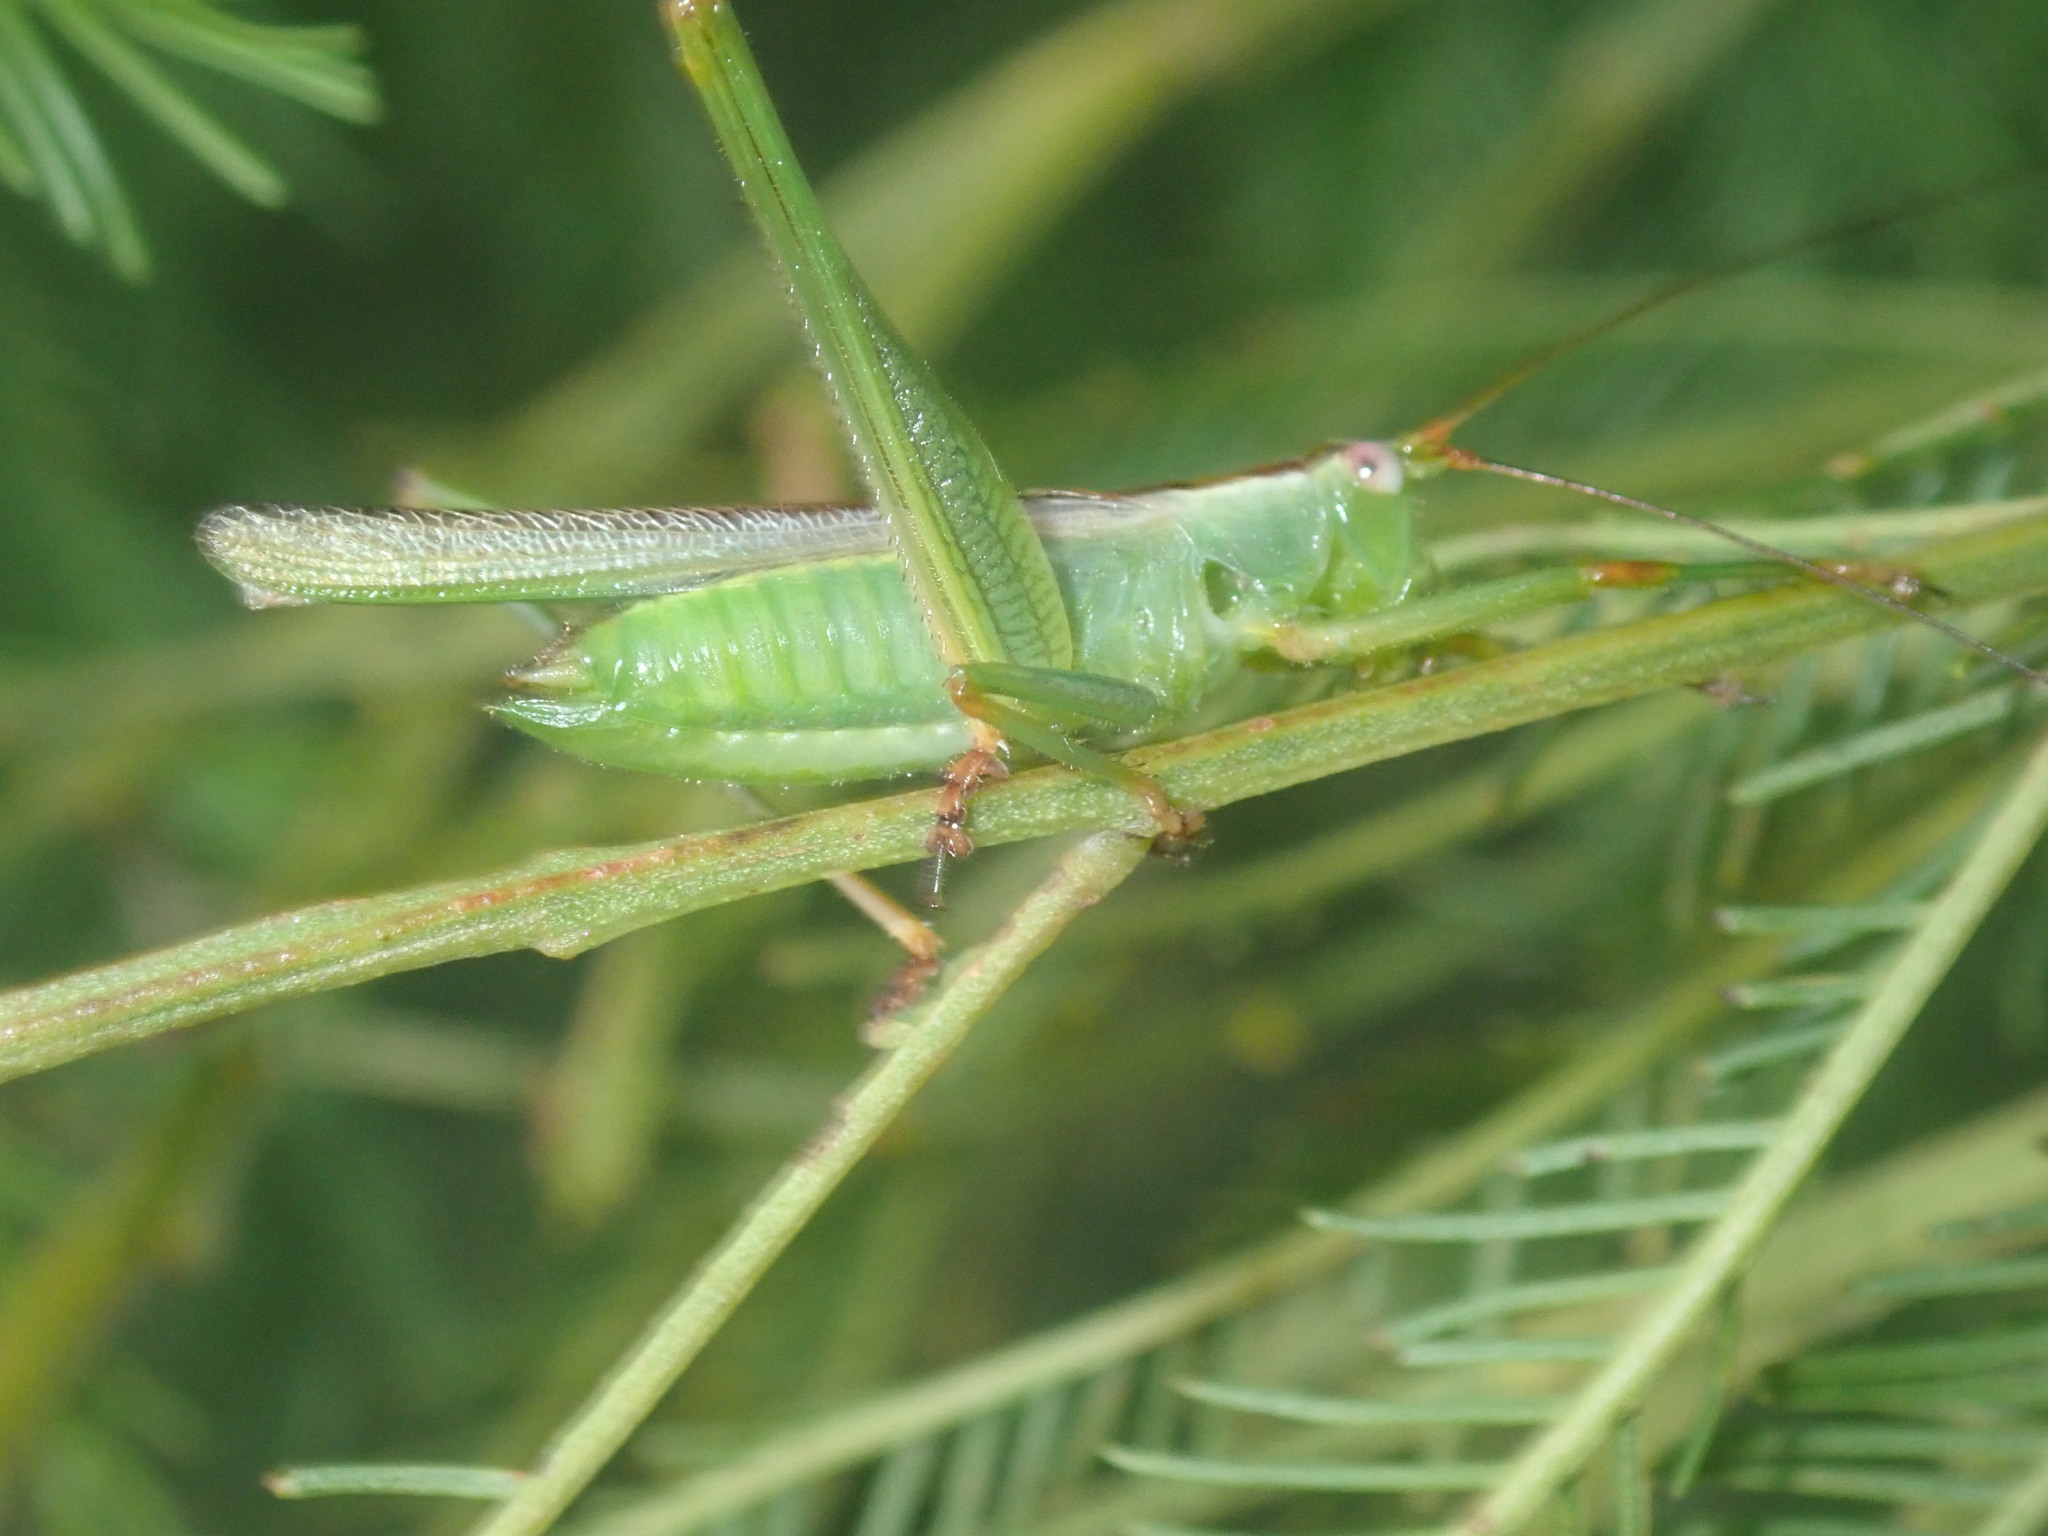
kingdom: Animalia
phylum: Arthropoda
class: Insecta
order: Orthoptera
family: Tettigoniidae
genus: Conocephalomima
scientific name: Conocephalomima barameda
